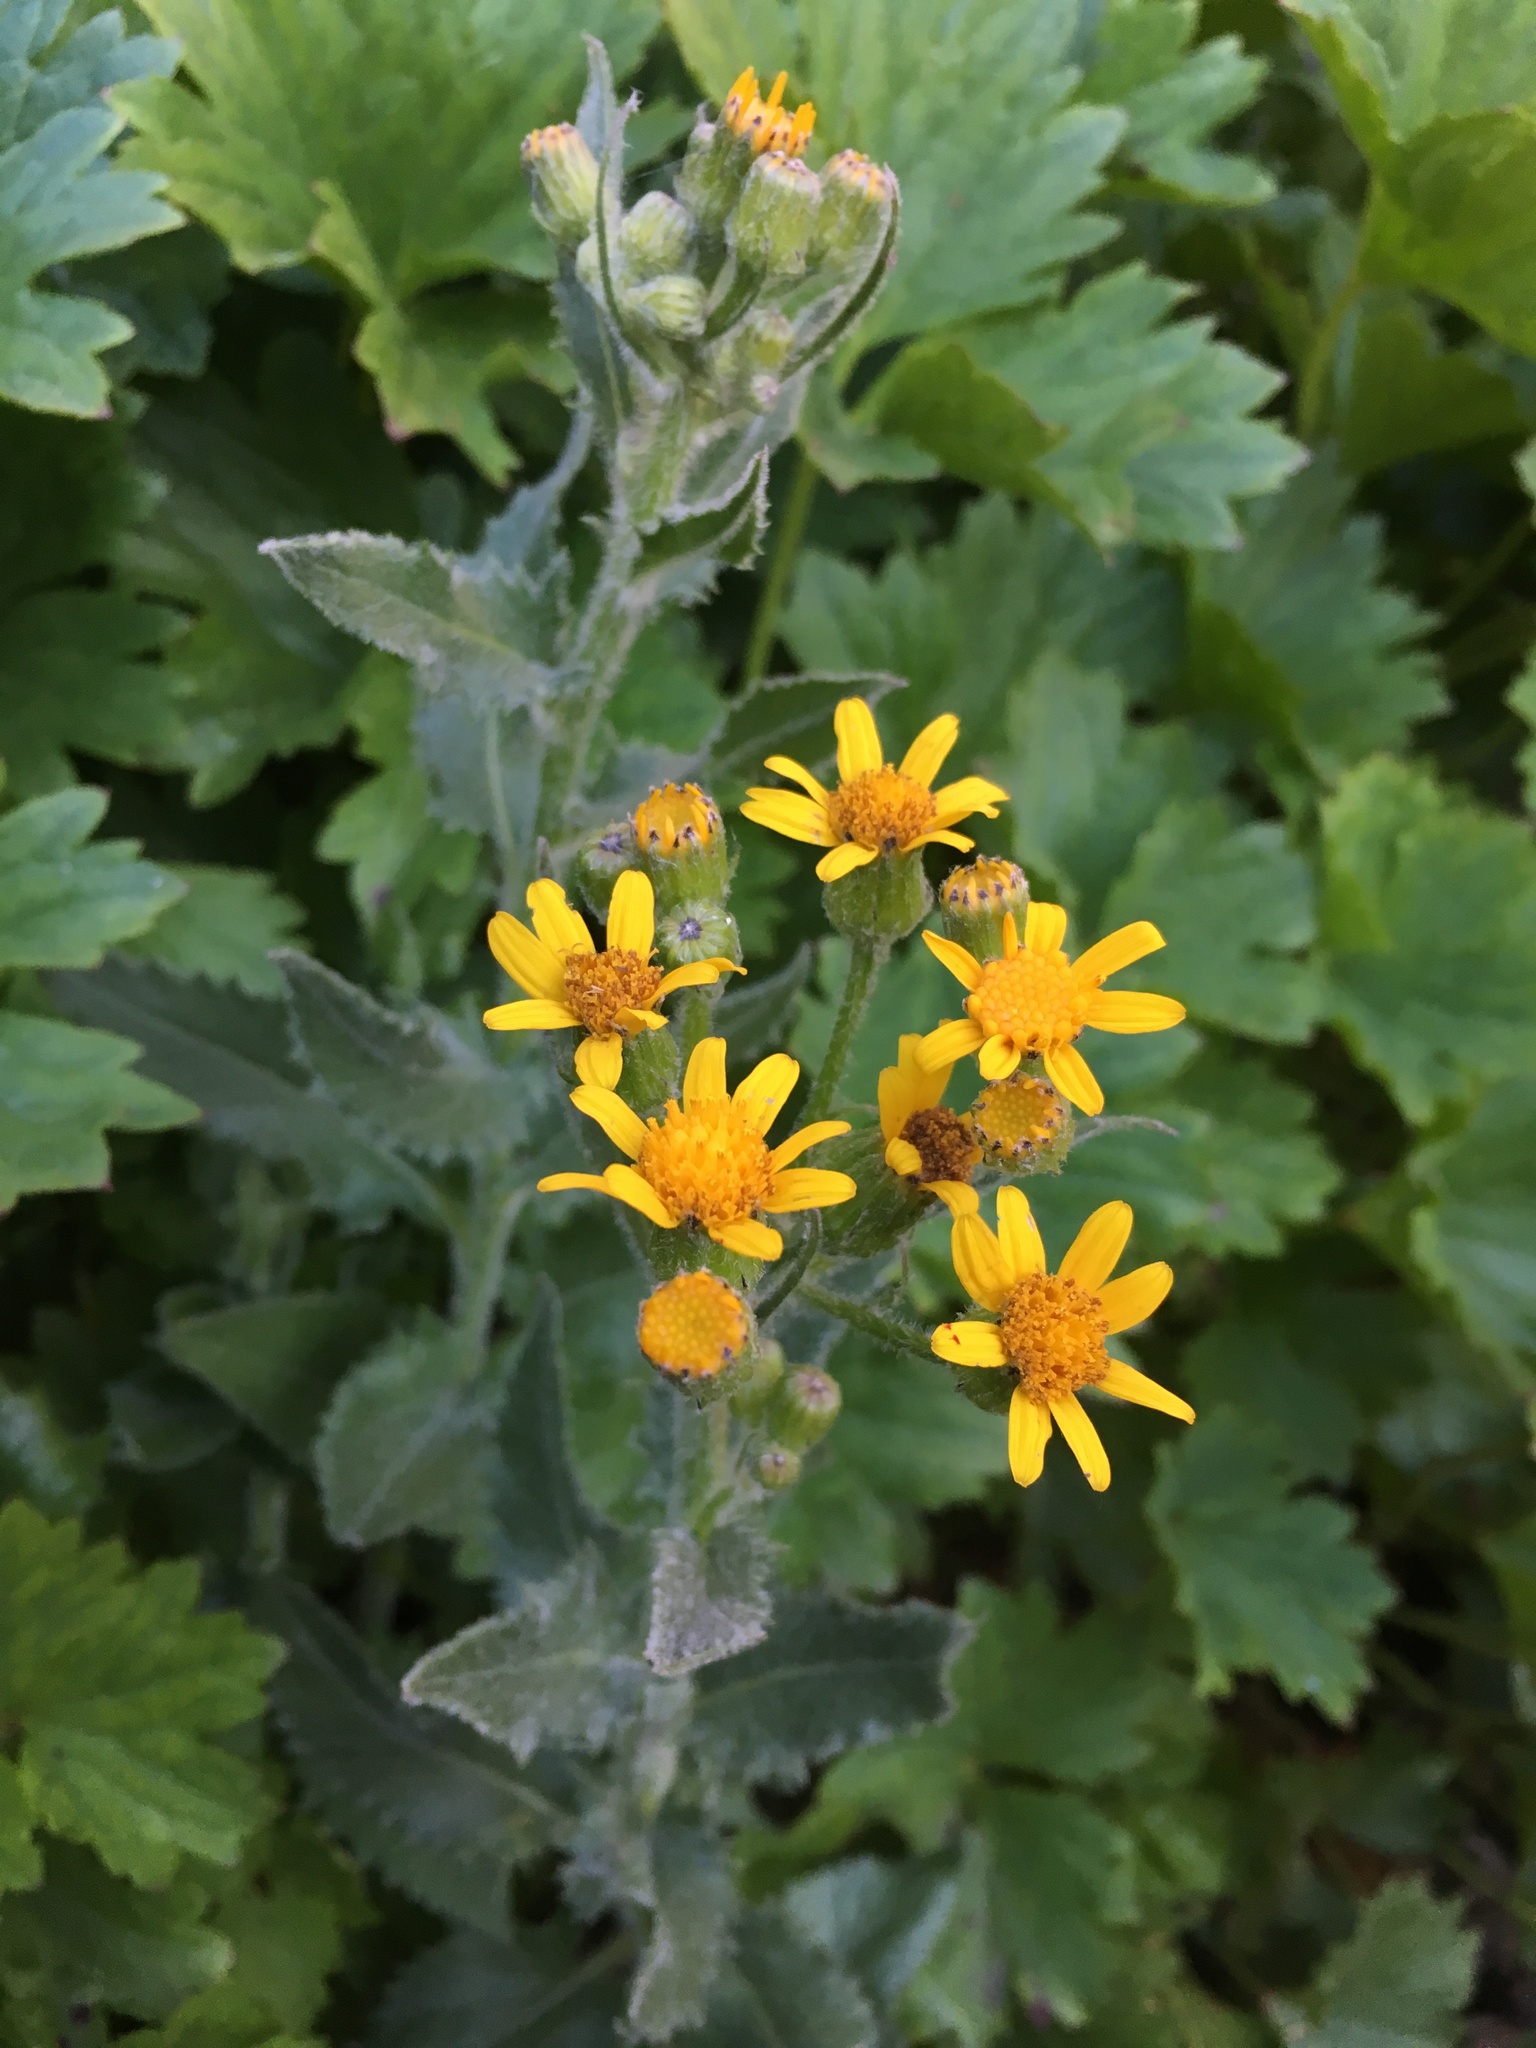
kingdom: Plantae
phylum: Tracheophyta
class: Magnoliopsida
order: Asterales
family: Asteraceae
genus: Senecio
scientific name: Senecio triangularis
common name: Arrowleaf butterweed
